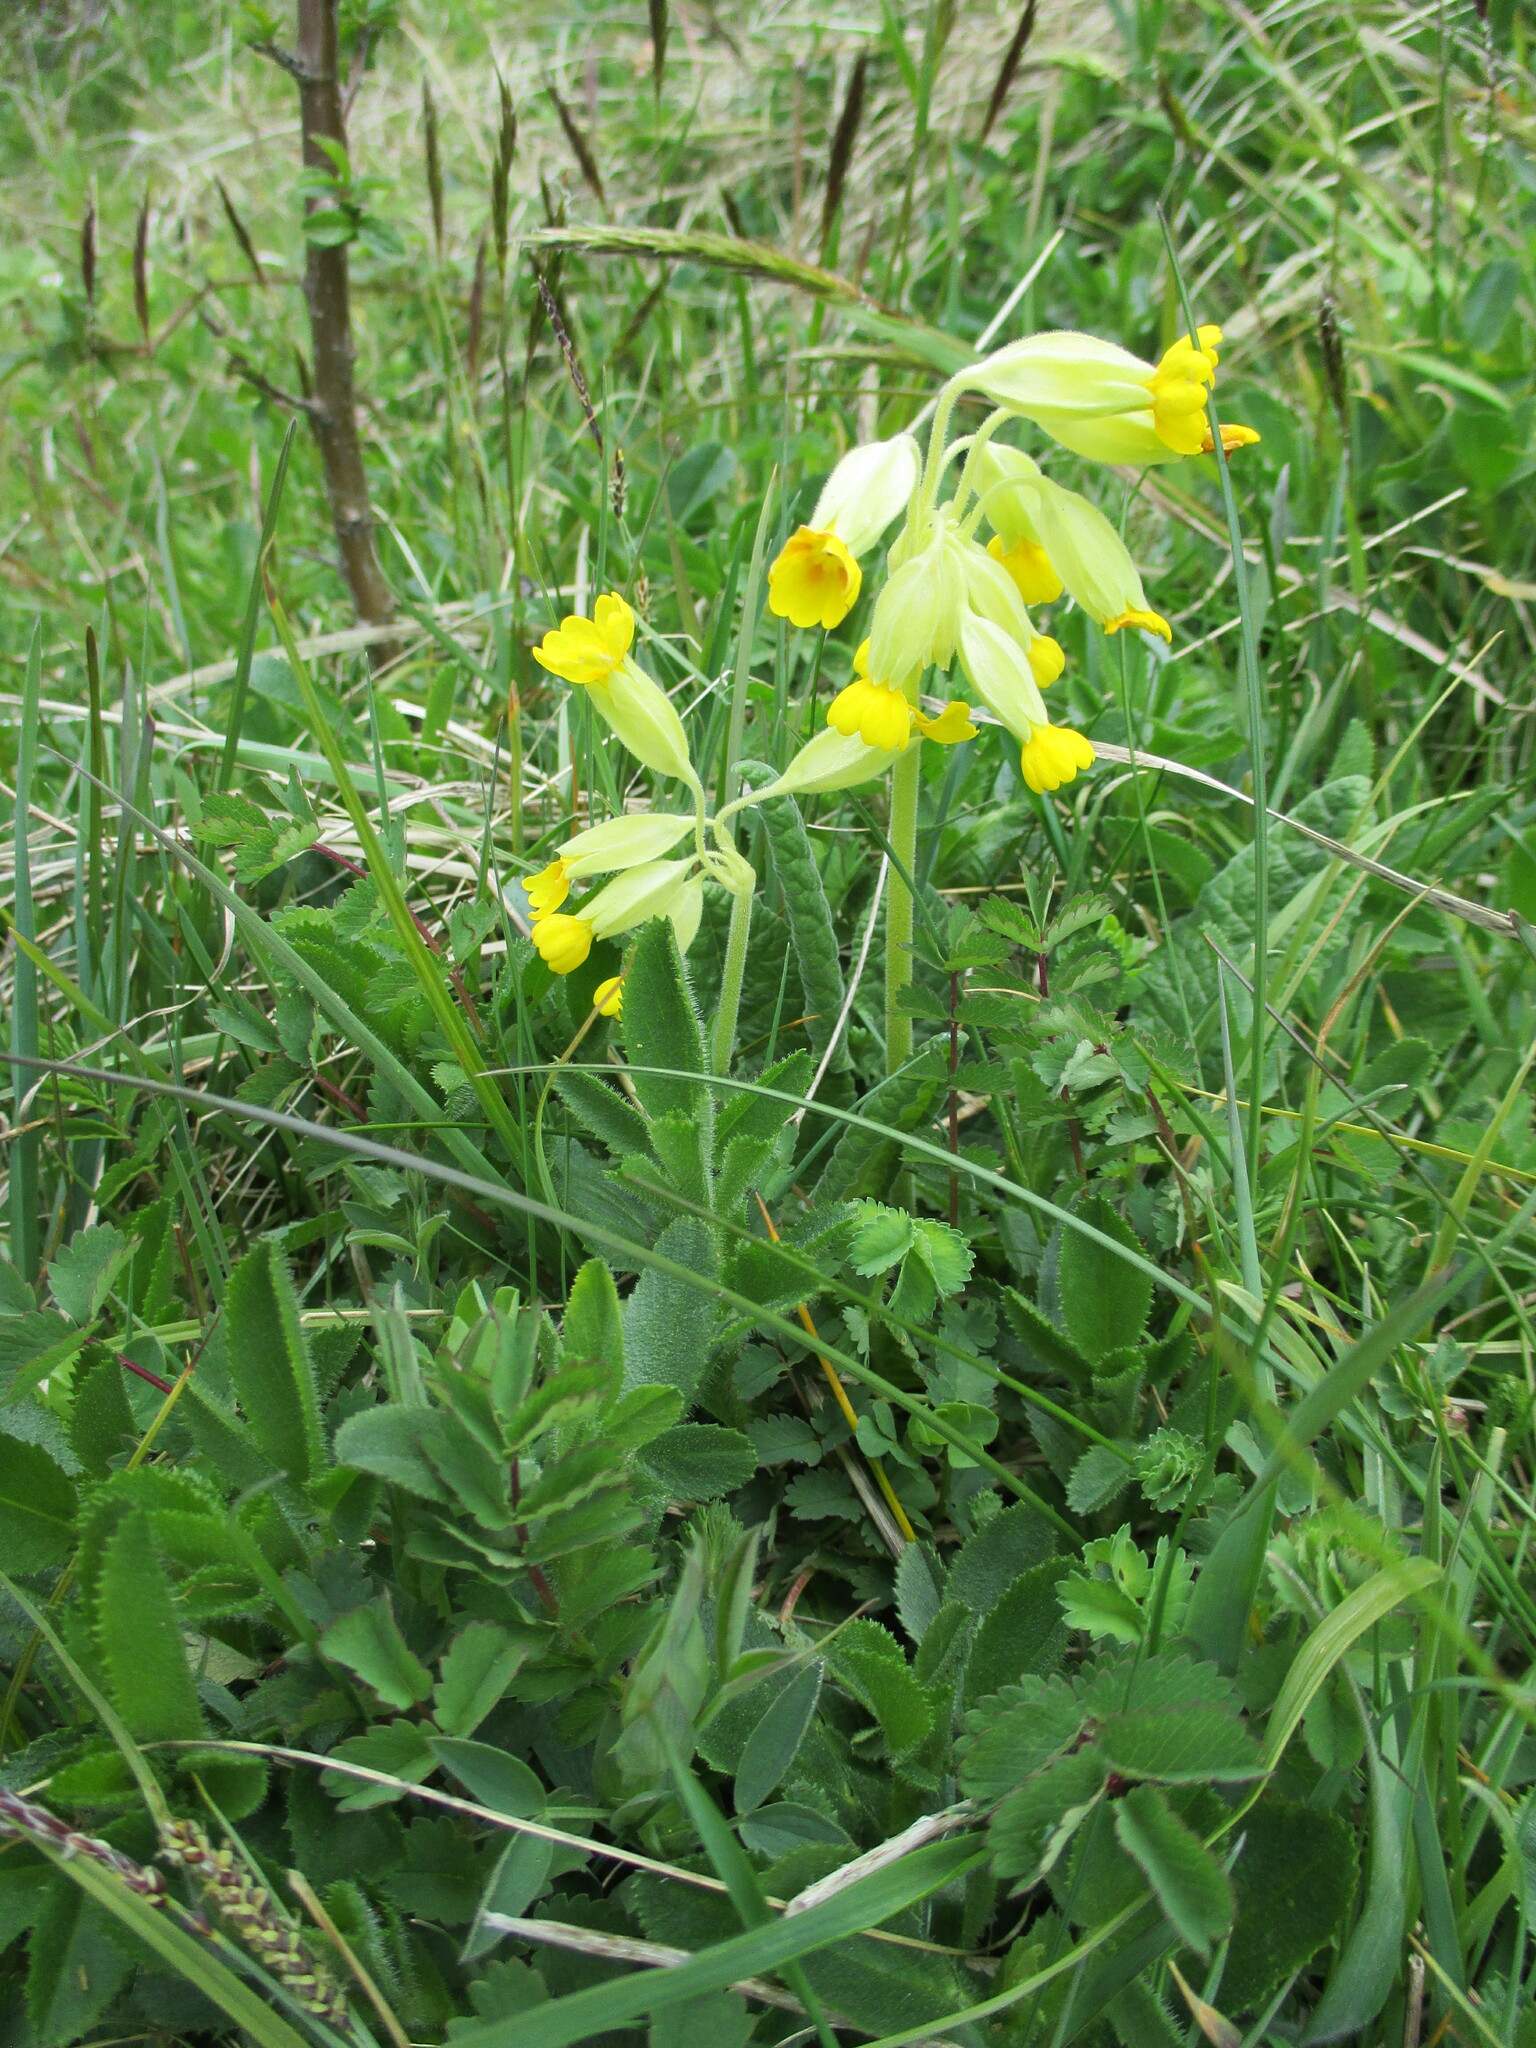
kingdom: Plantae
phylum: Tracheophyta
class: Magnoliopsida
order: Ericales
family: Primulaceae
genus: Primula
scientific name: Primula veris
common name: Cowslip
